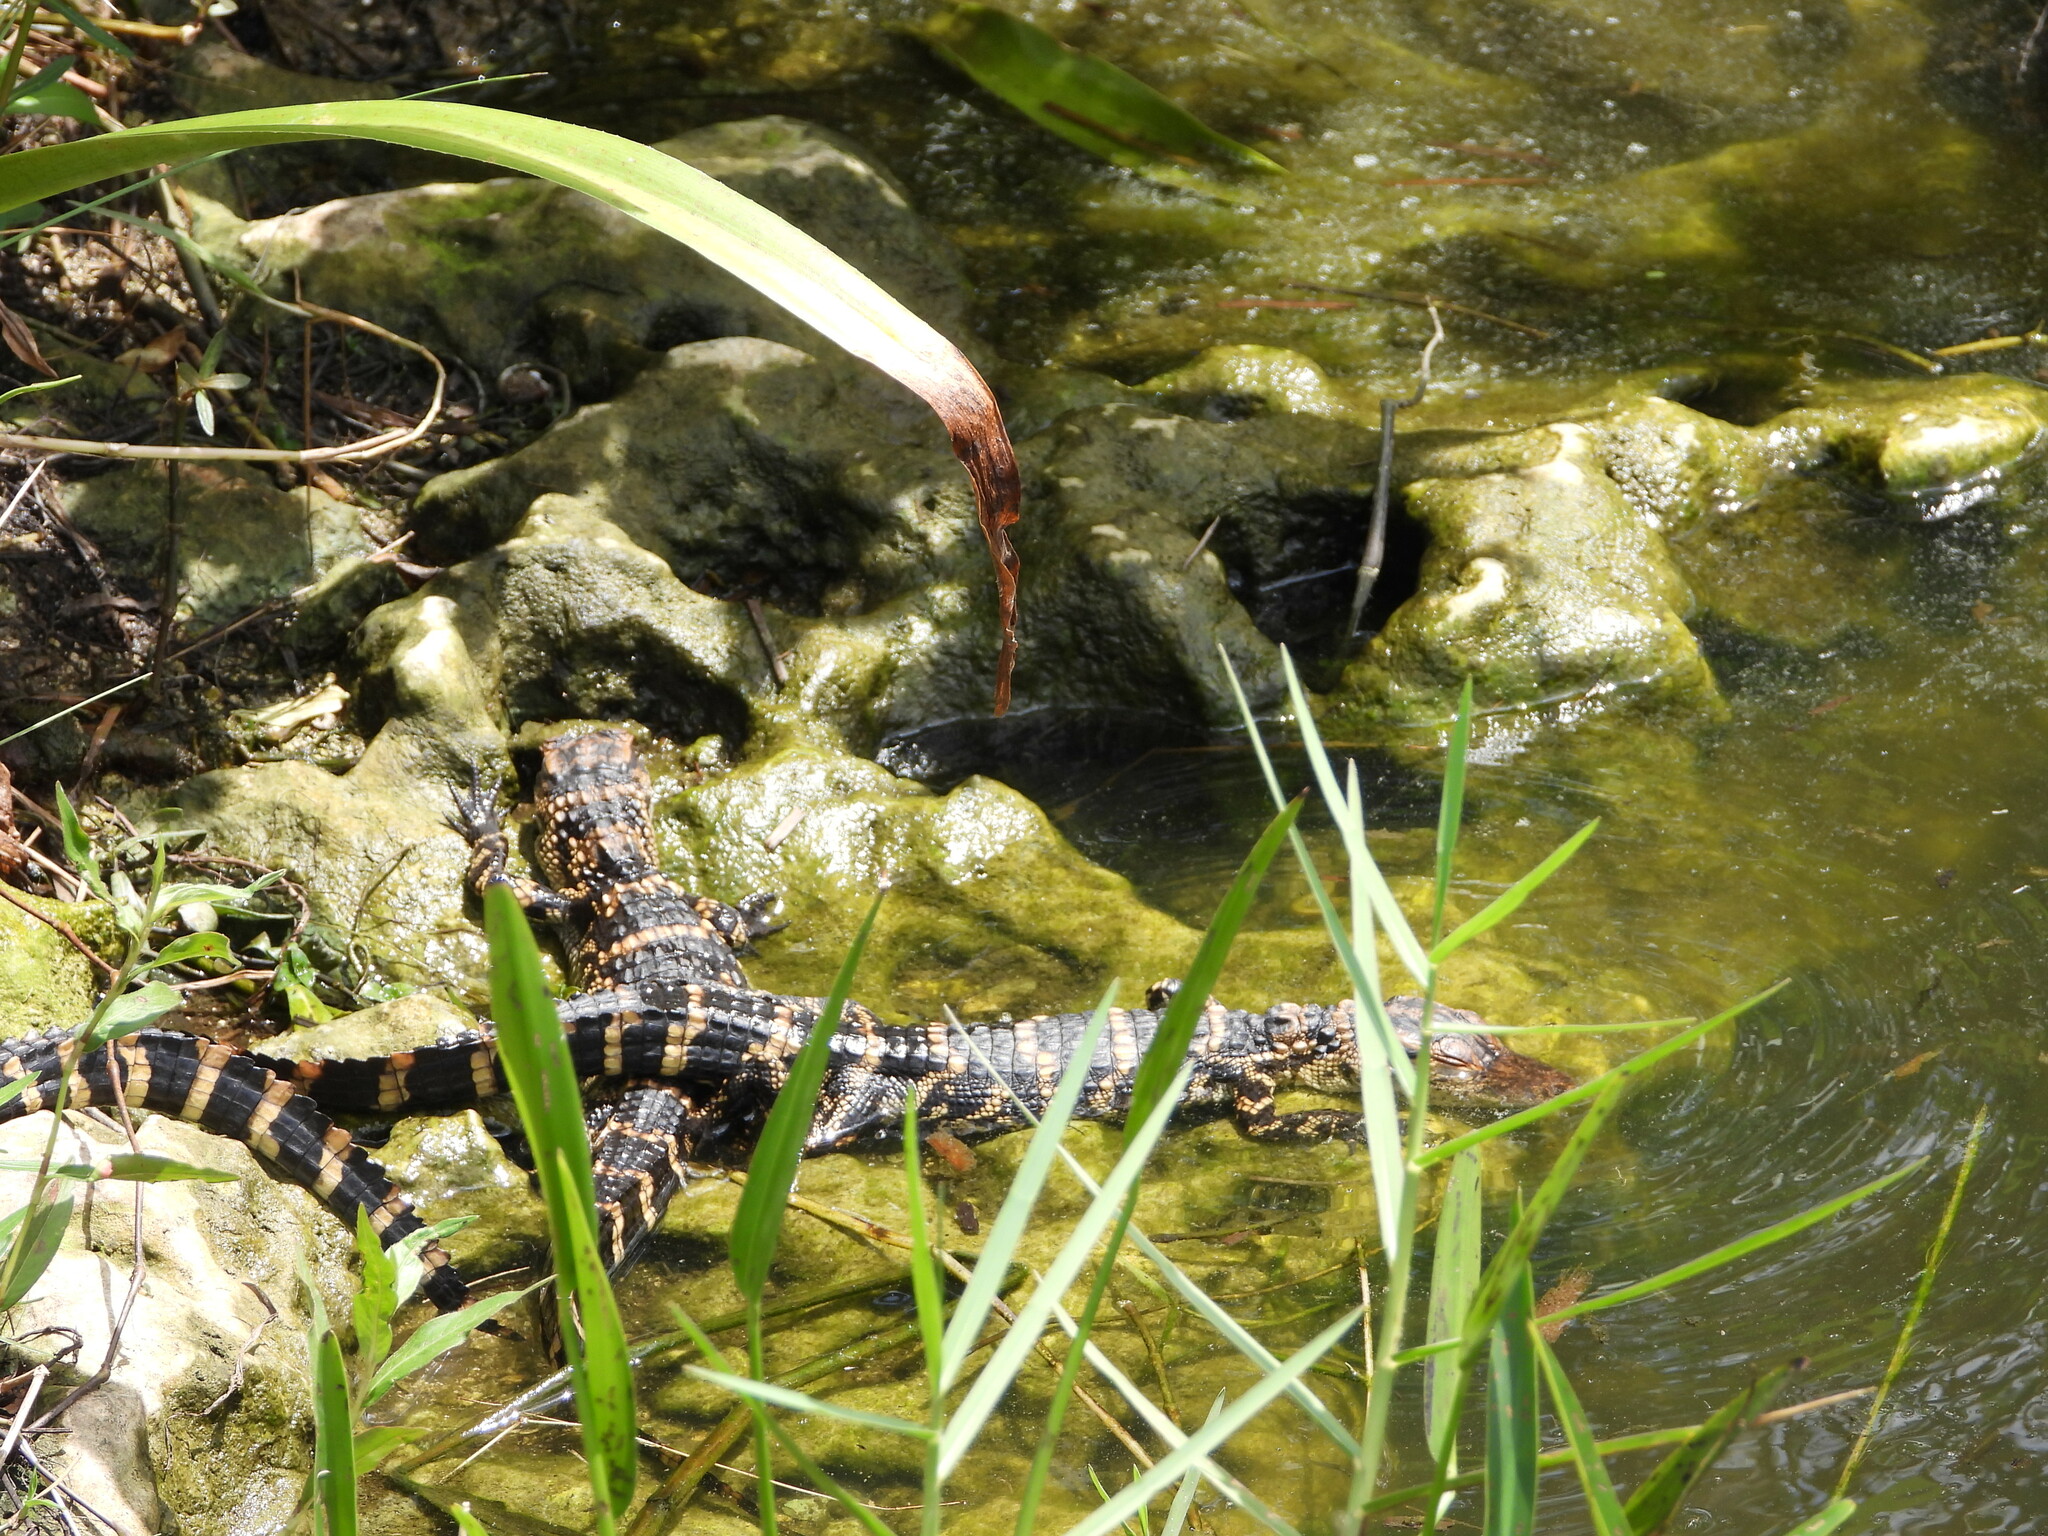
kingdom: Animalia
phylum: Chordata
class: Crocodylia
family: Alligatoridae
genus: Alligator
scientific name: Alligator mississippiensis
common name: American alligator
